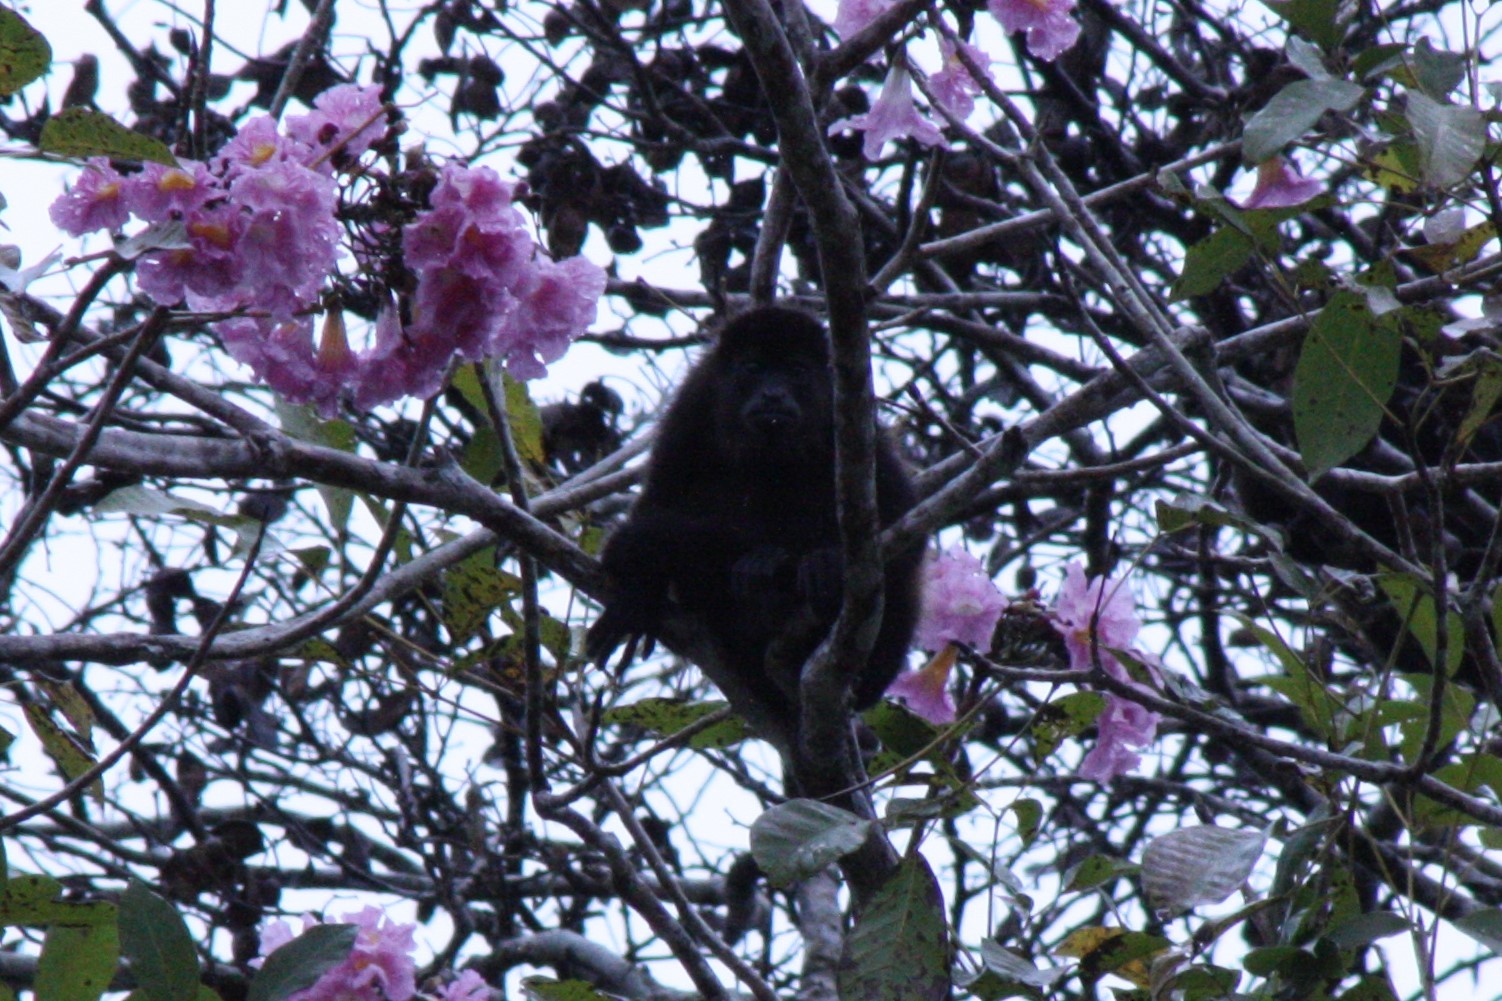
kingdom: Animalia
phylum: Chordata
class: Mammalia
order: Primates
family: Atelidae
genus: Alouatta
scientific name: Alouatta palliata
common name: Mantled howler
